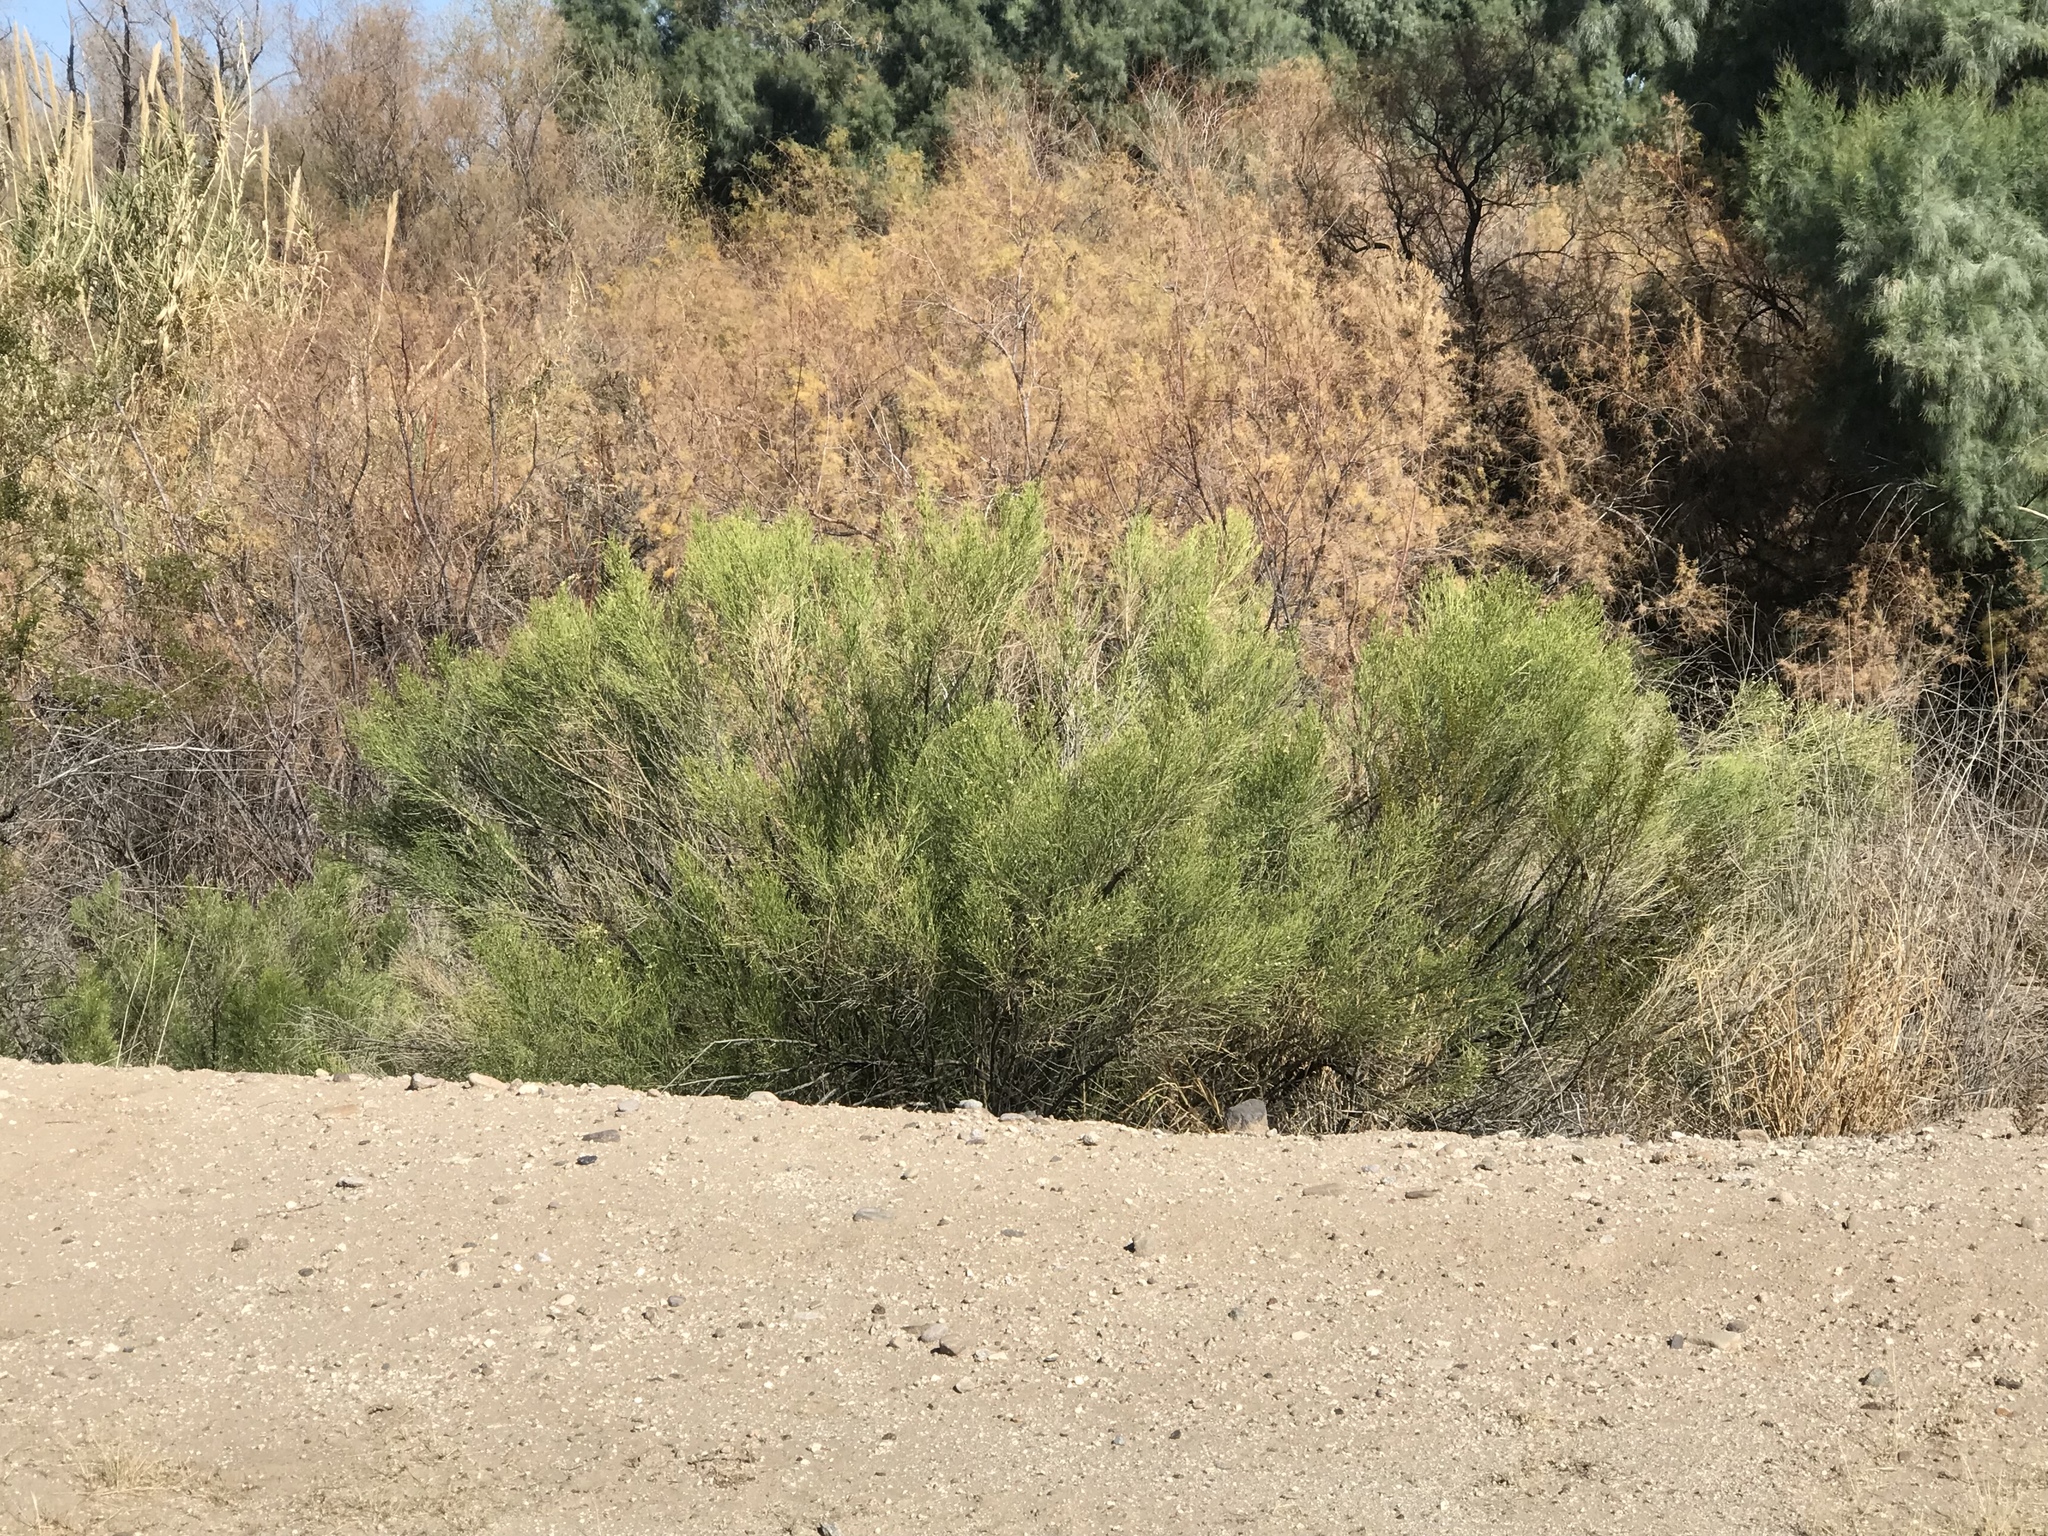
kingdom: Plantae
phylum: Tracheophyta
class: Magnoliopsida
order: Asterales
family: Asteraceae
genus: Baccharis
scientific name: Baccharis sarothroides
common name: Desert-broom
